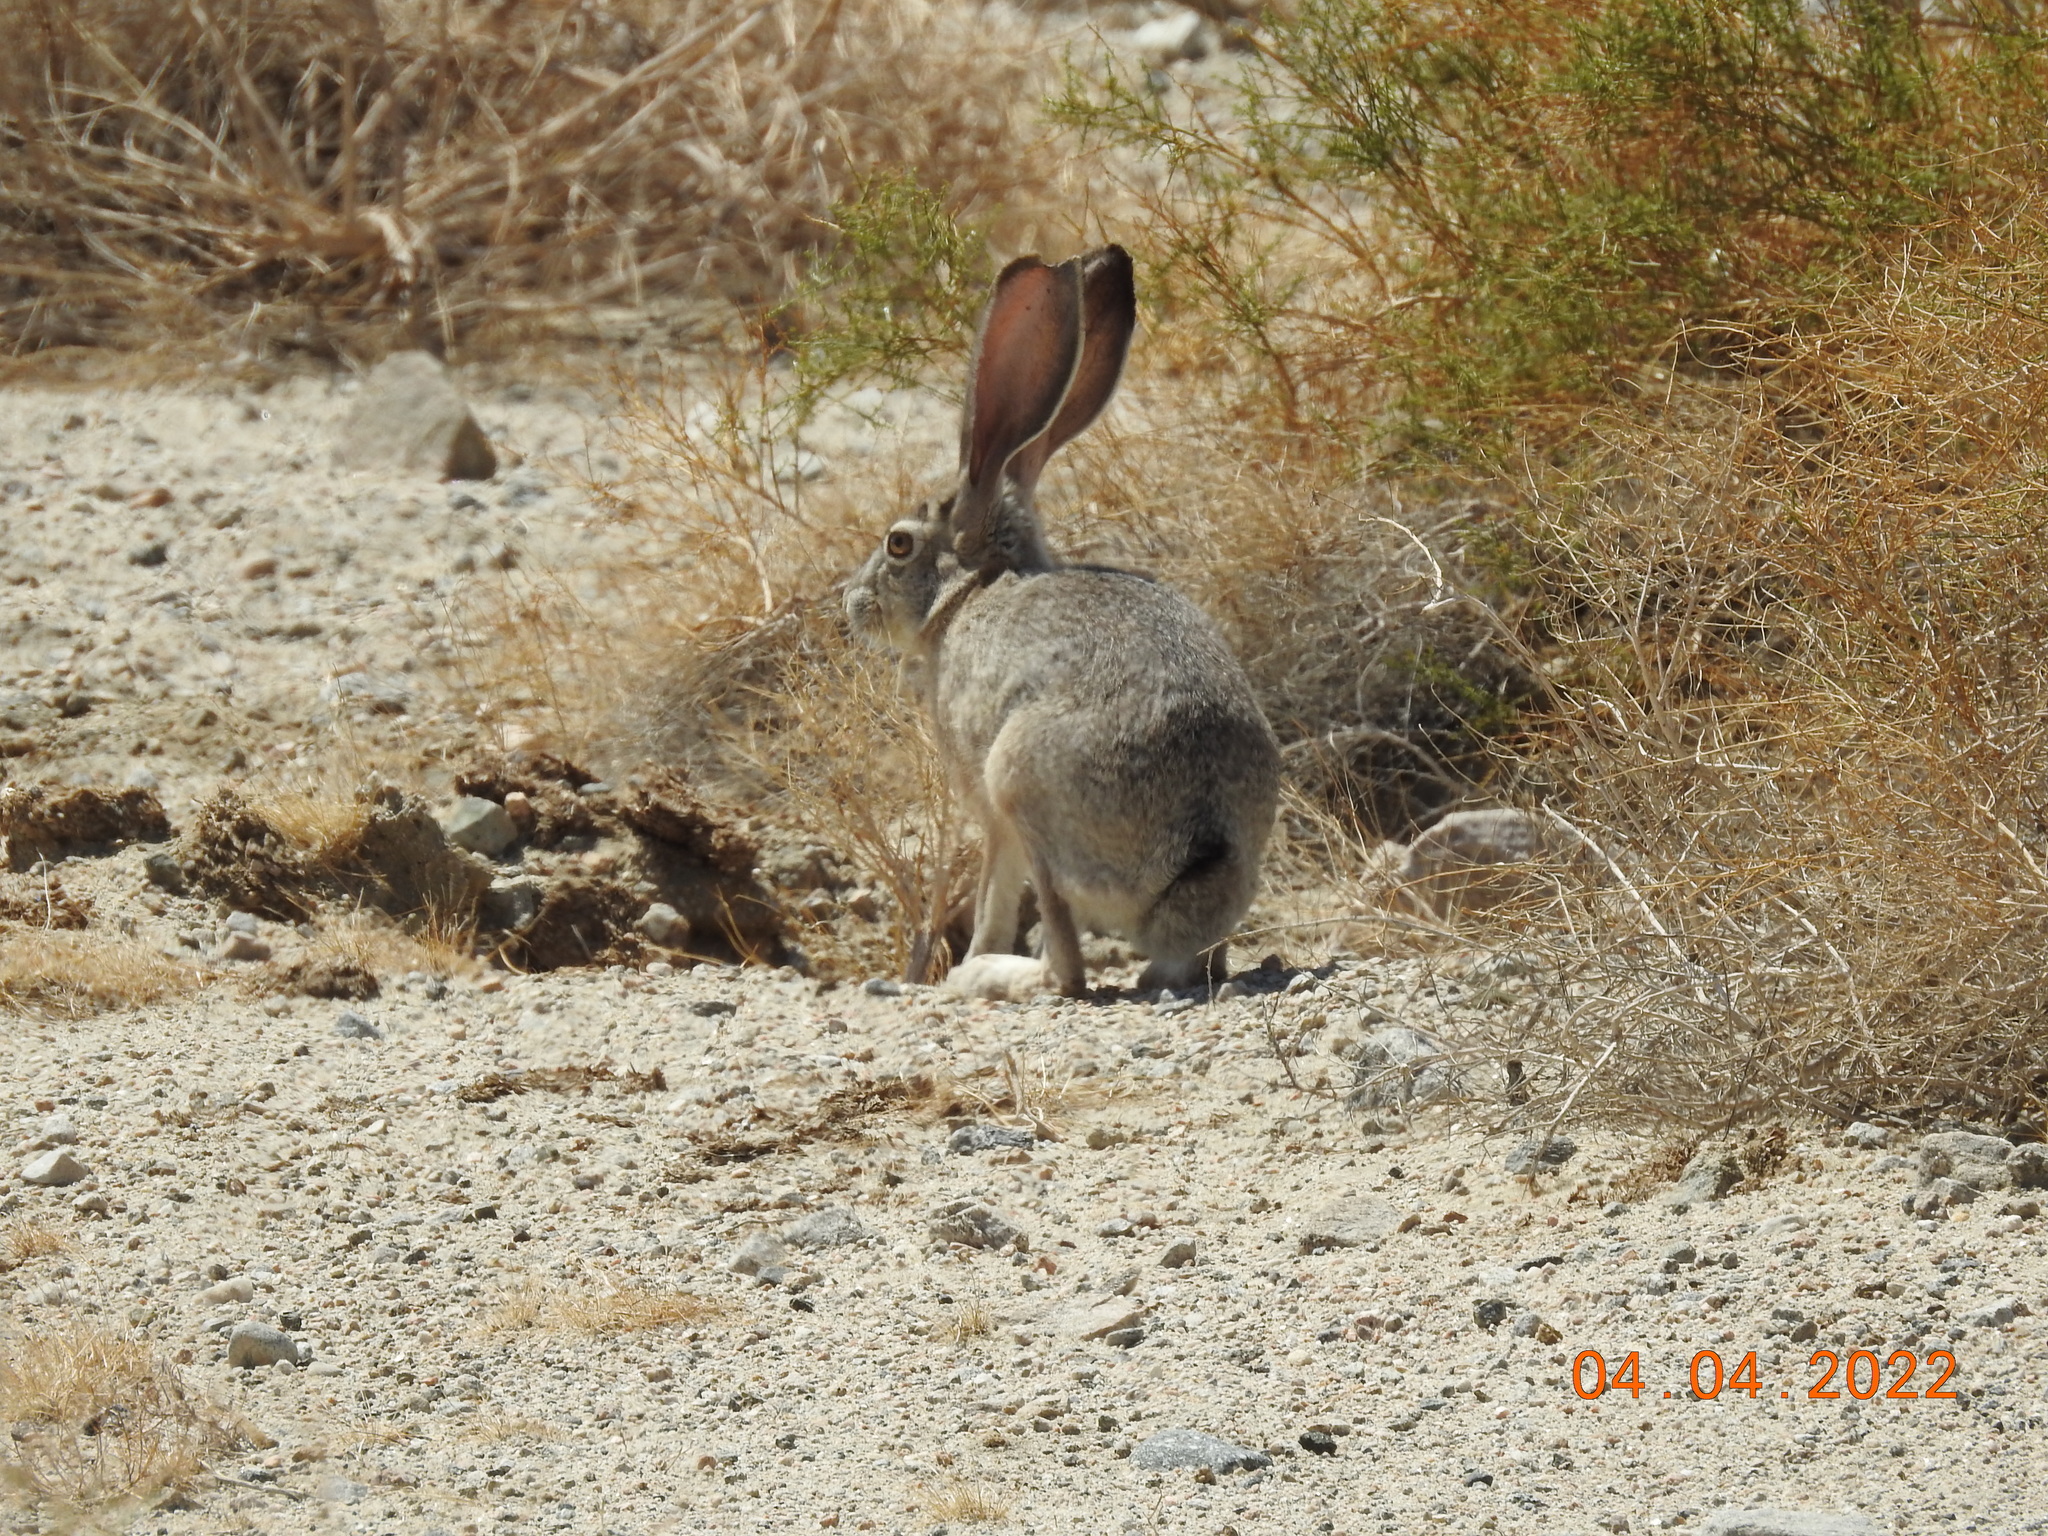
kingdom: Animalia
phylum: Chordata
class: Mammalia
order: Lagomorpha
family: Leporidae
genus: Lepus
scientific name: Lepus californicus
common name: Black-tailed jackrabbit
